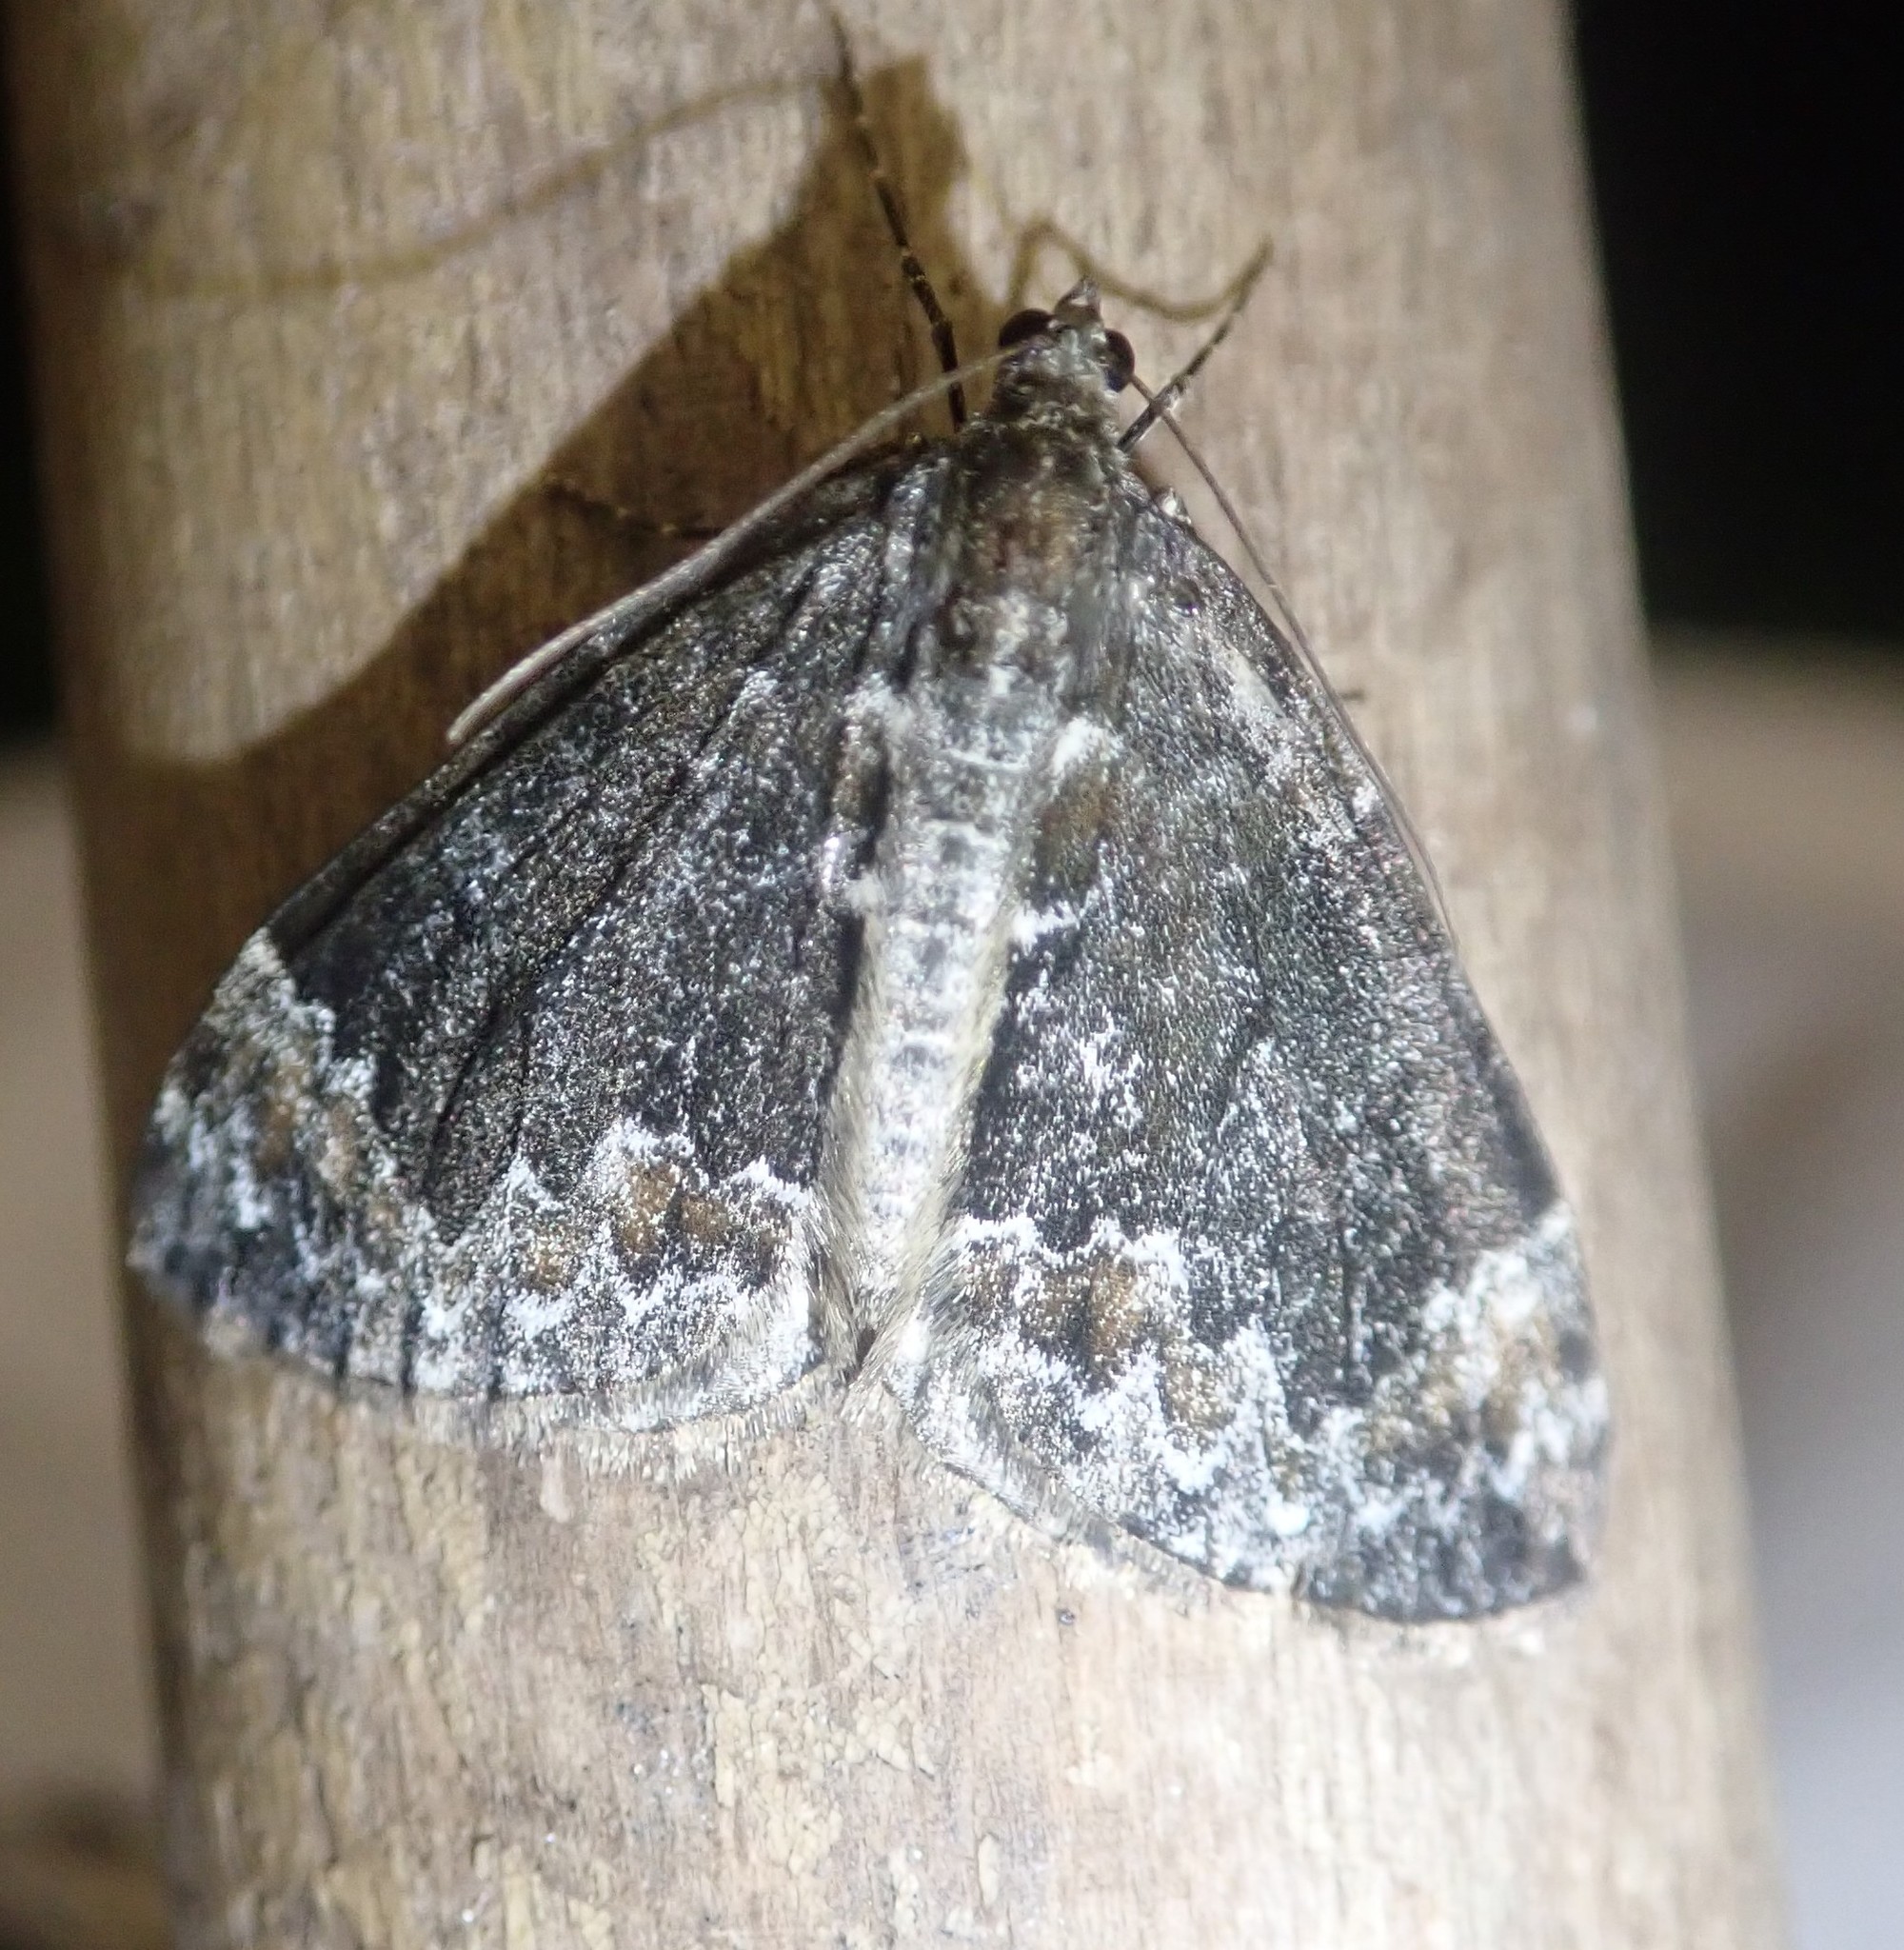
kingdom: Animalia
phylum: Arthropoda
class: Insecta
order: Lepidoptera
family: Geometridae
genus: Dysstroma
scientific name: Dysstroma truncata
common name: Common marbled carpet
